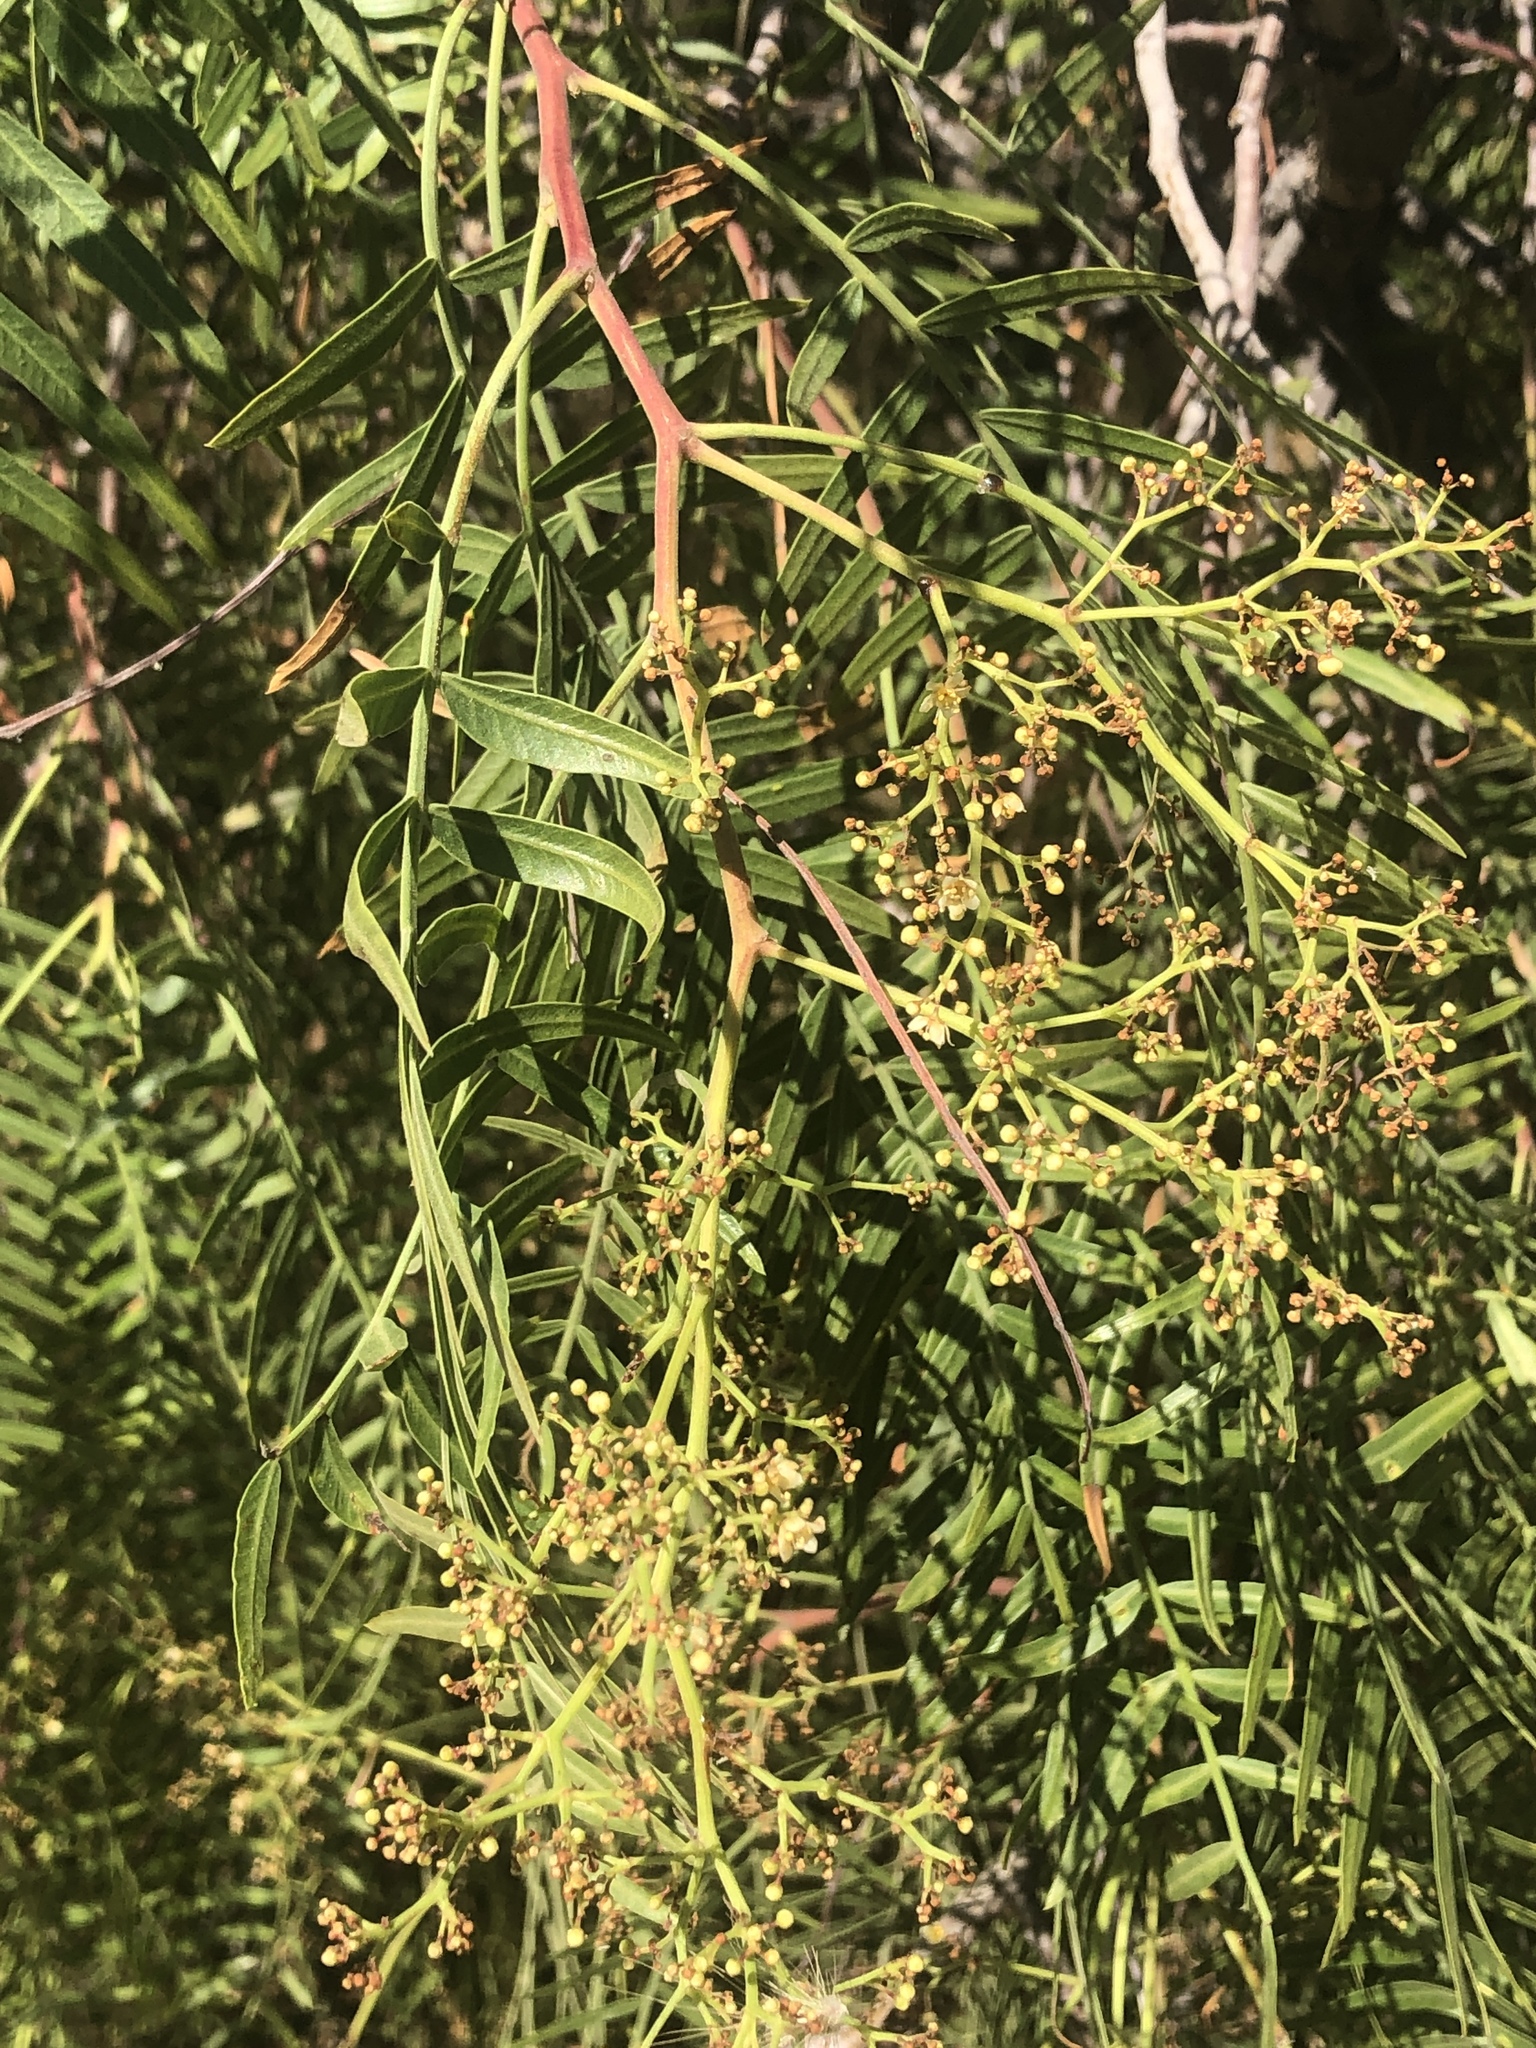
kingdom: Plantae
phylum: Tracheophyta
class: Magnoliopsida
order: Sapindales
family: Anacardiaceae
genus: Schinus
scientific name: Schinus molle
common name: Peruvian peppertree
